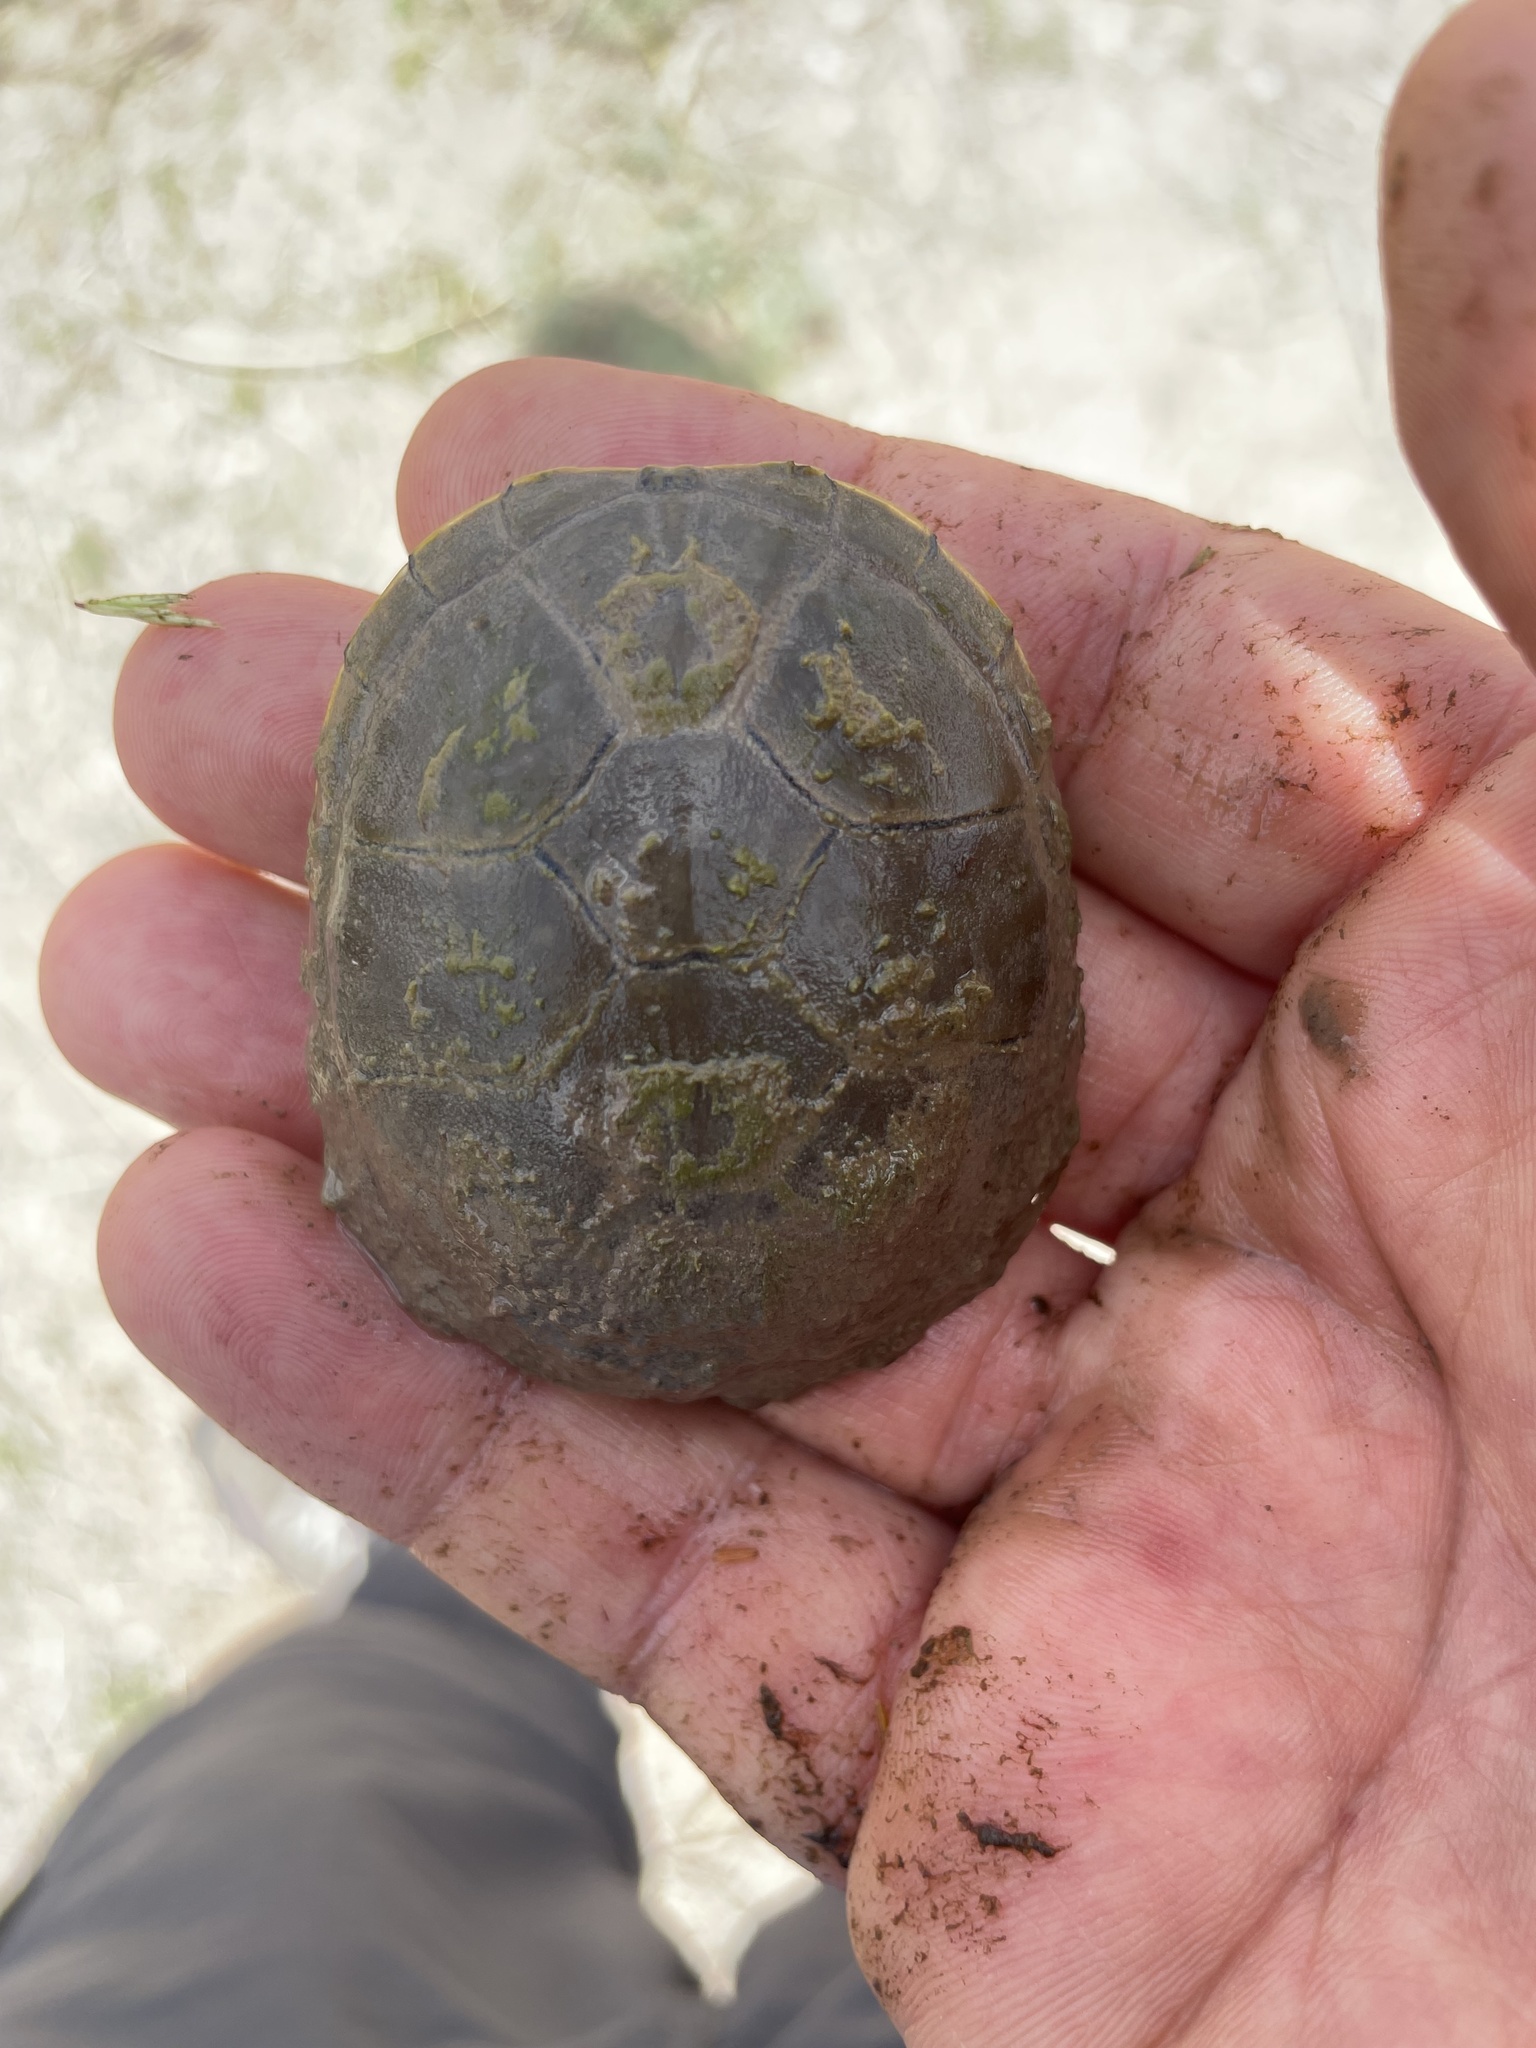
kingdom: Animalia
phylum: Chordata
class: Testudines
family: Kinosternidae
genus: Kinosternon
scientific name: Kinosternon flavescens
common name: Yellow mud turtle
